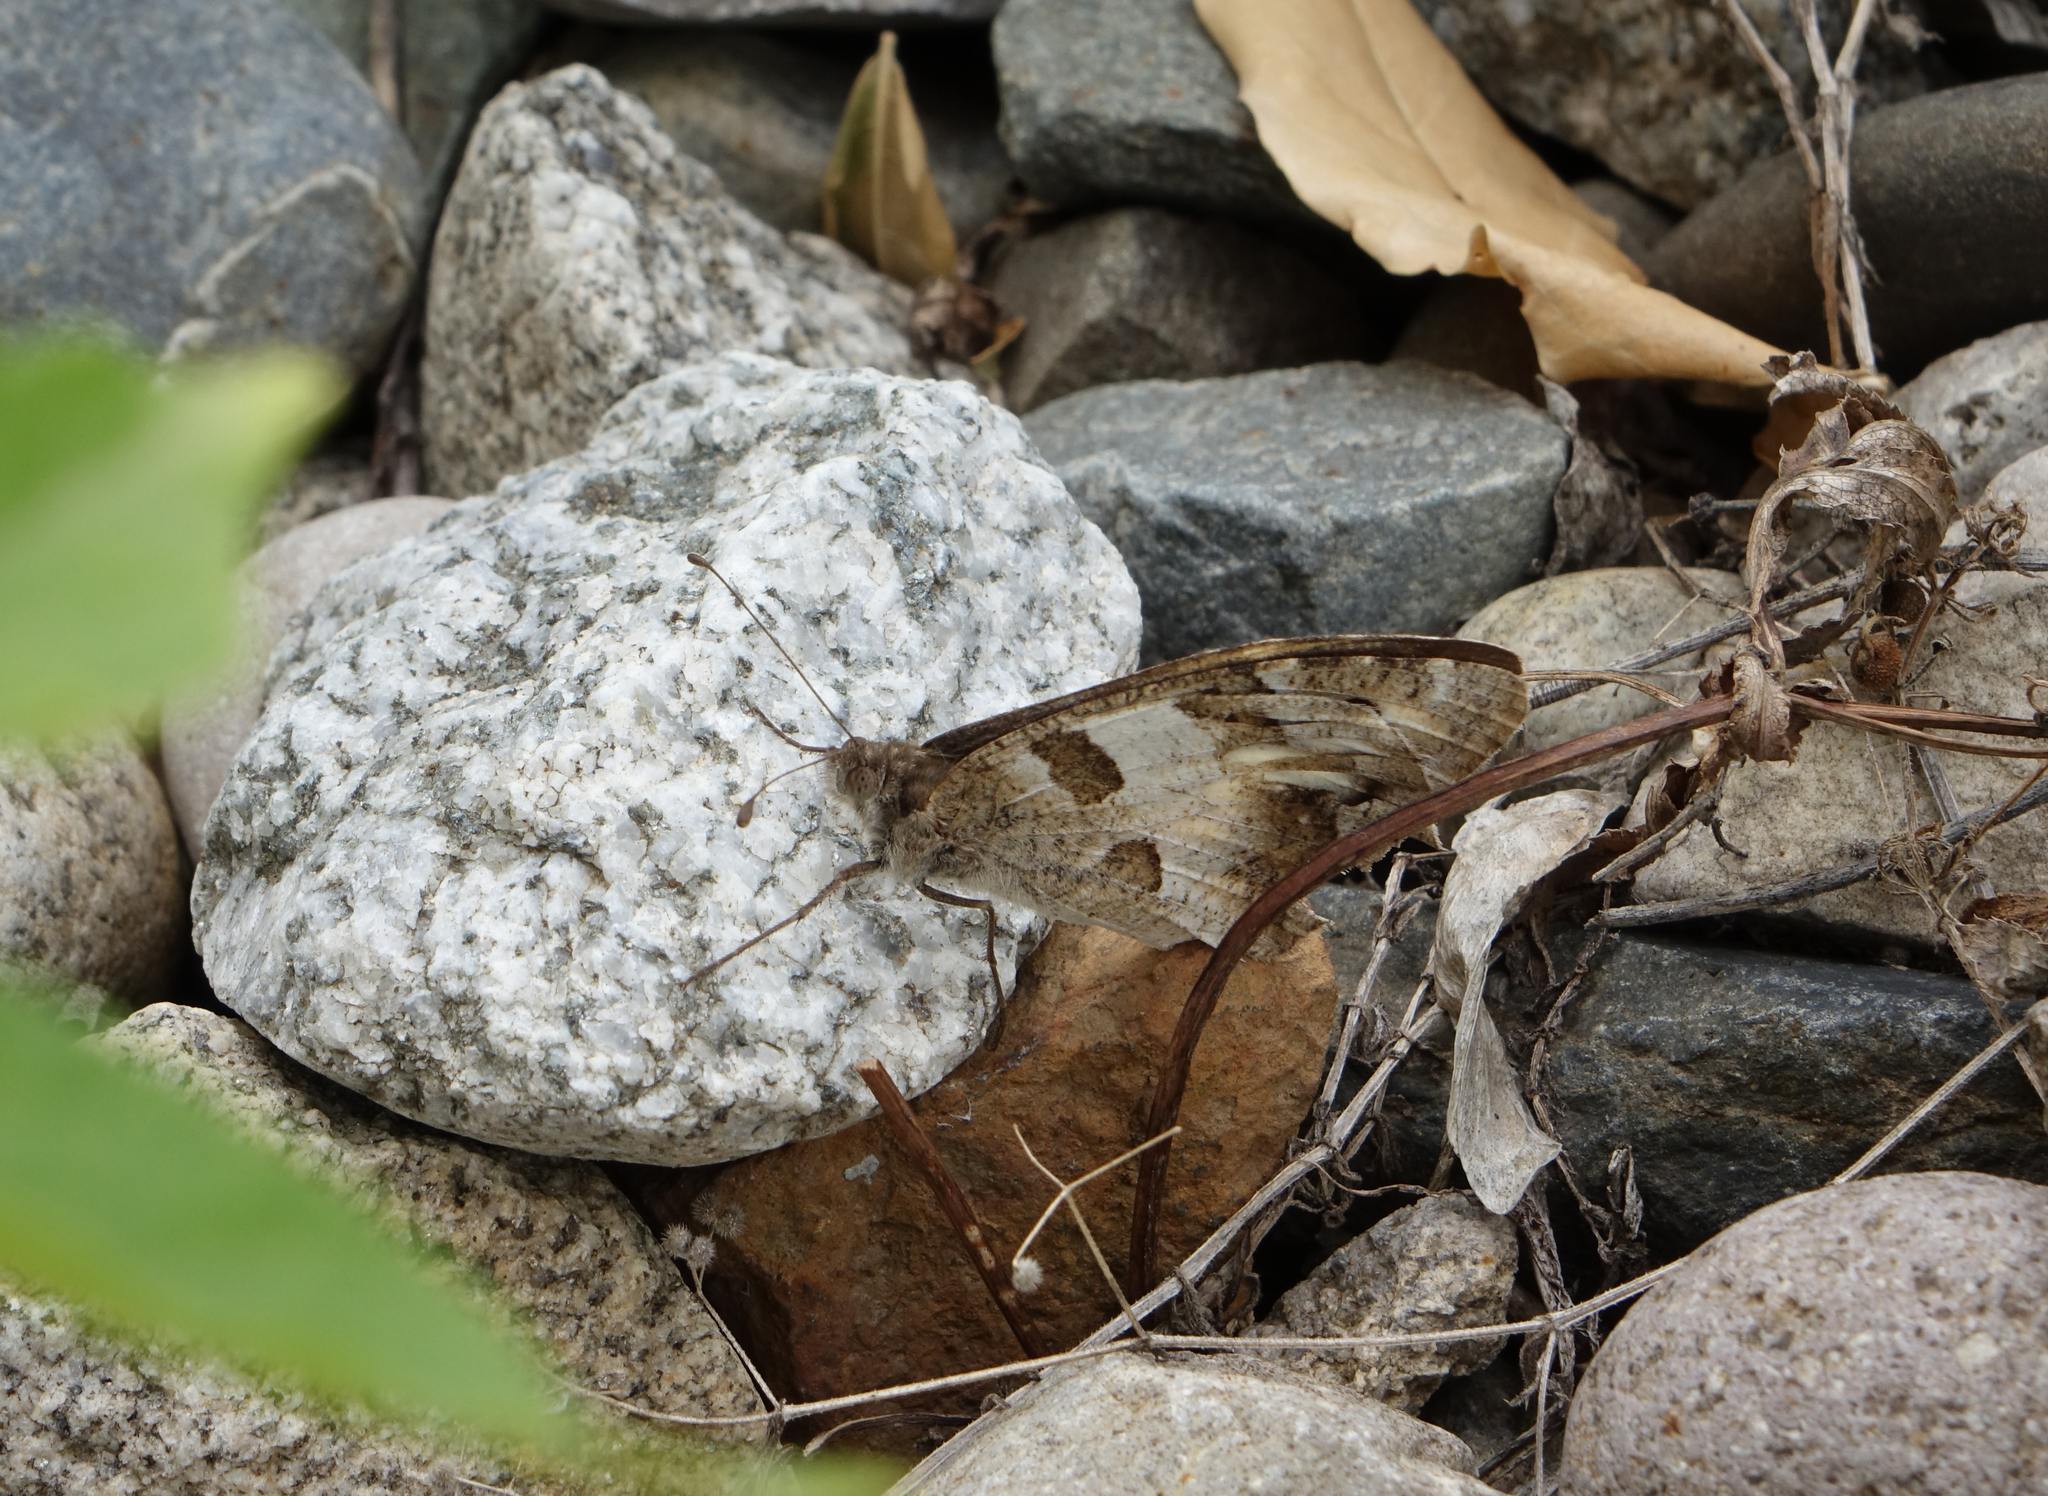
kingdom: Animalia
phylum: Arthropoda
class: Insecta
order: Lepidoptera
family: Nymphalidae
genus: Satyrus
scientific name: Satyrus briseis
